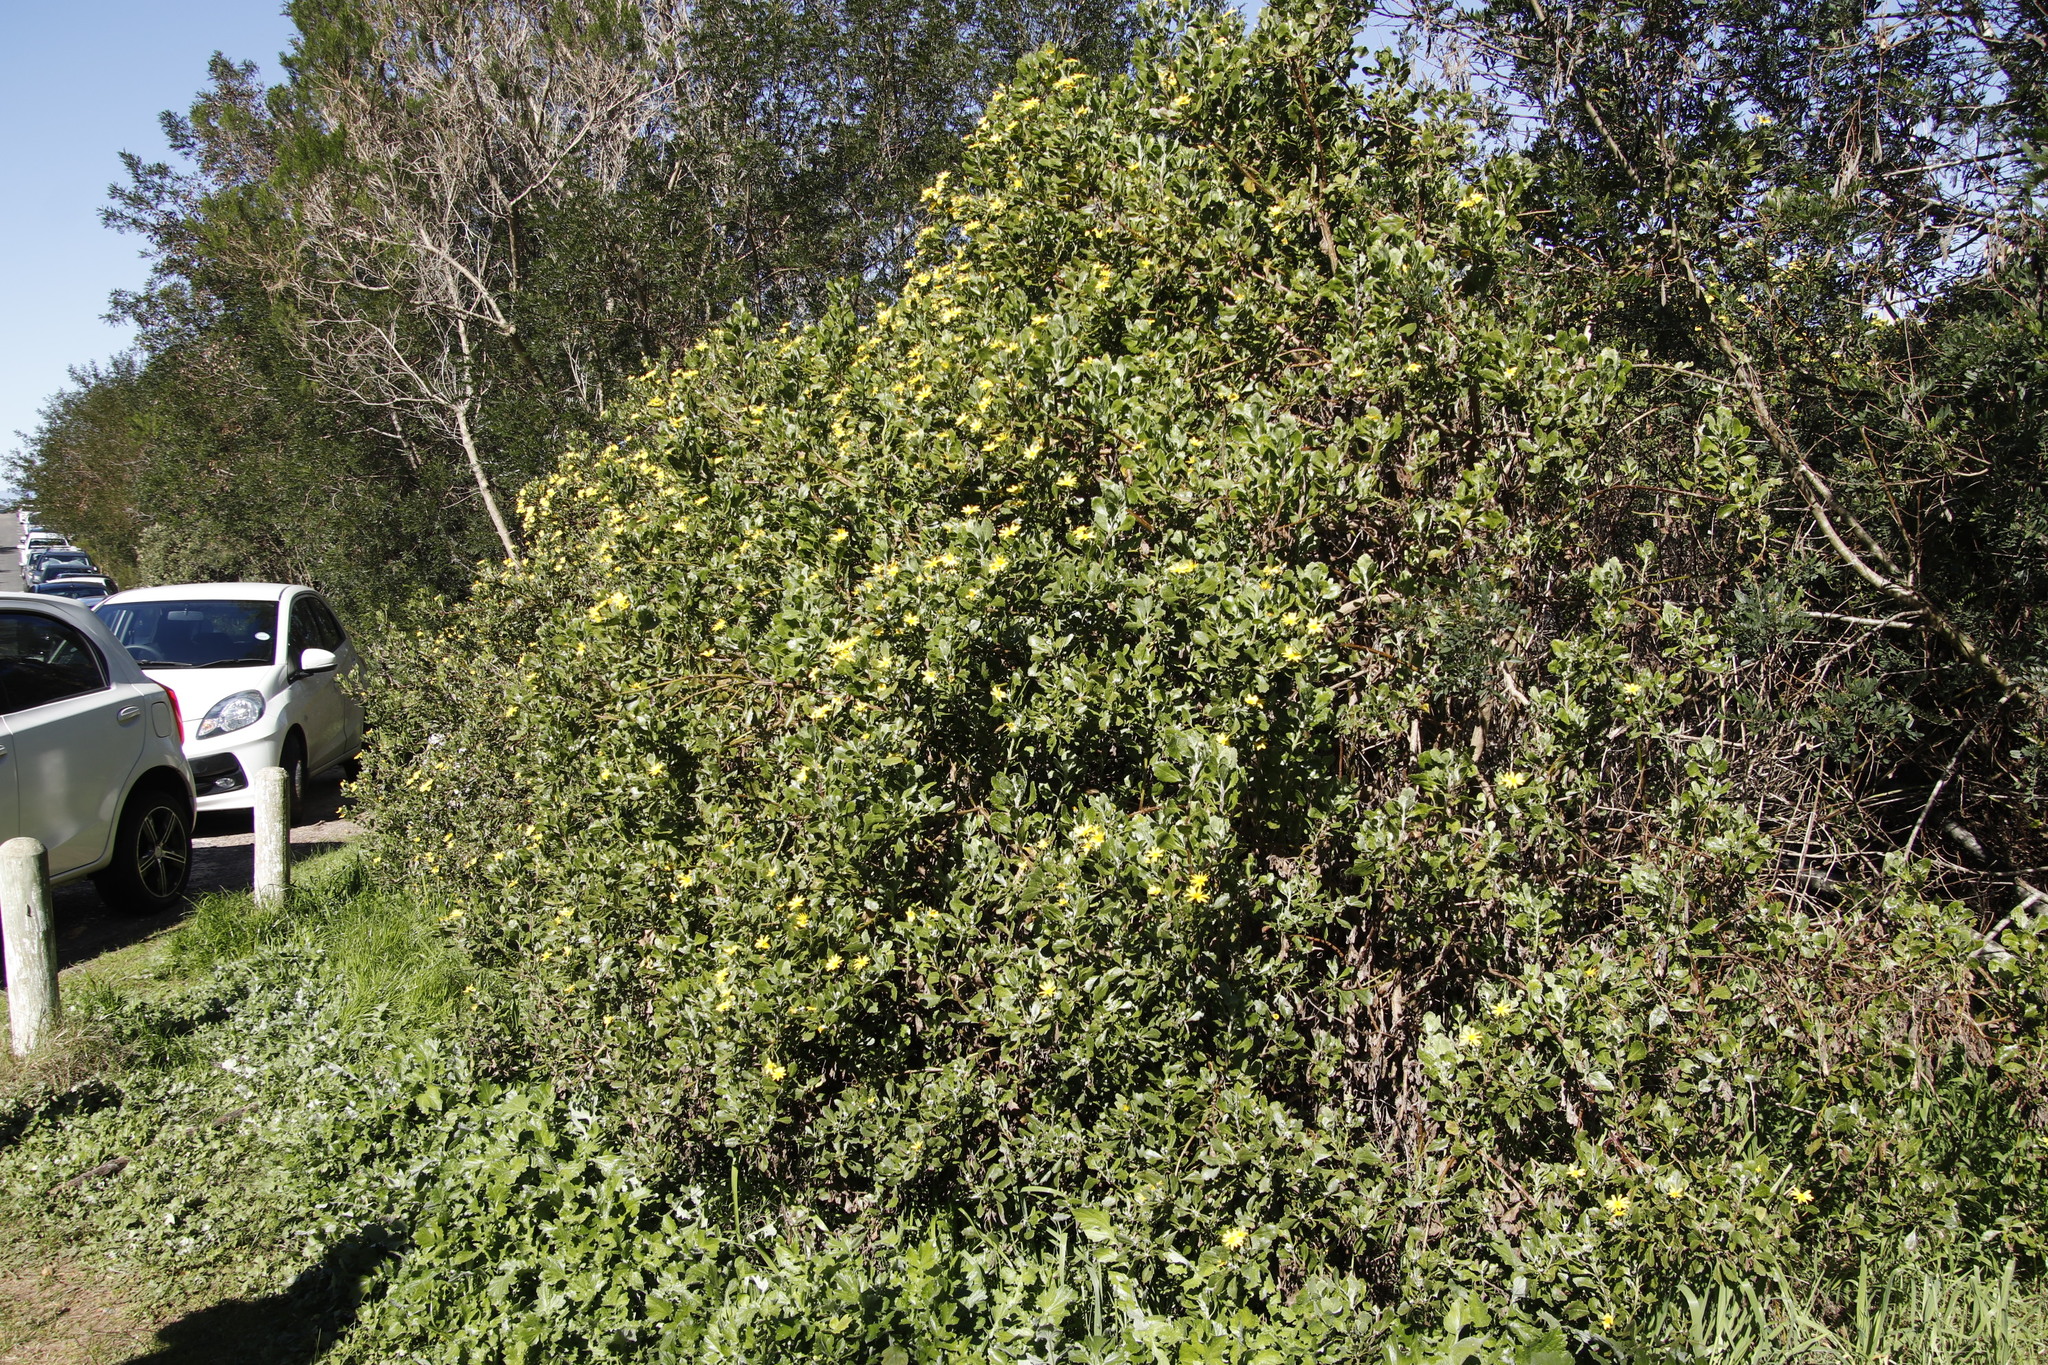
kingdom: Plantae
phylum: Tracheophyta
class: Magnoliopsida
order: Asterales
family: Asteraceae
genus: Osteospermum
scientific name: Osteospermum moniliferum
